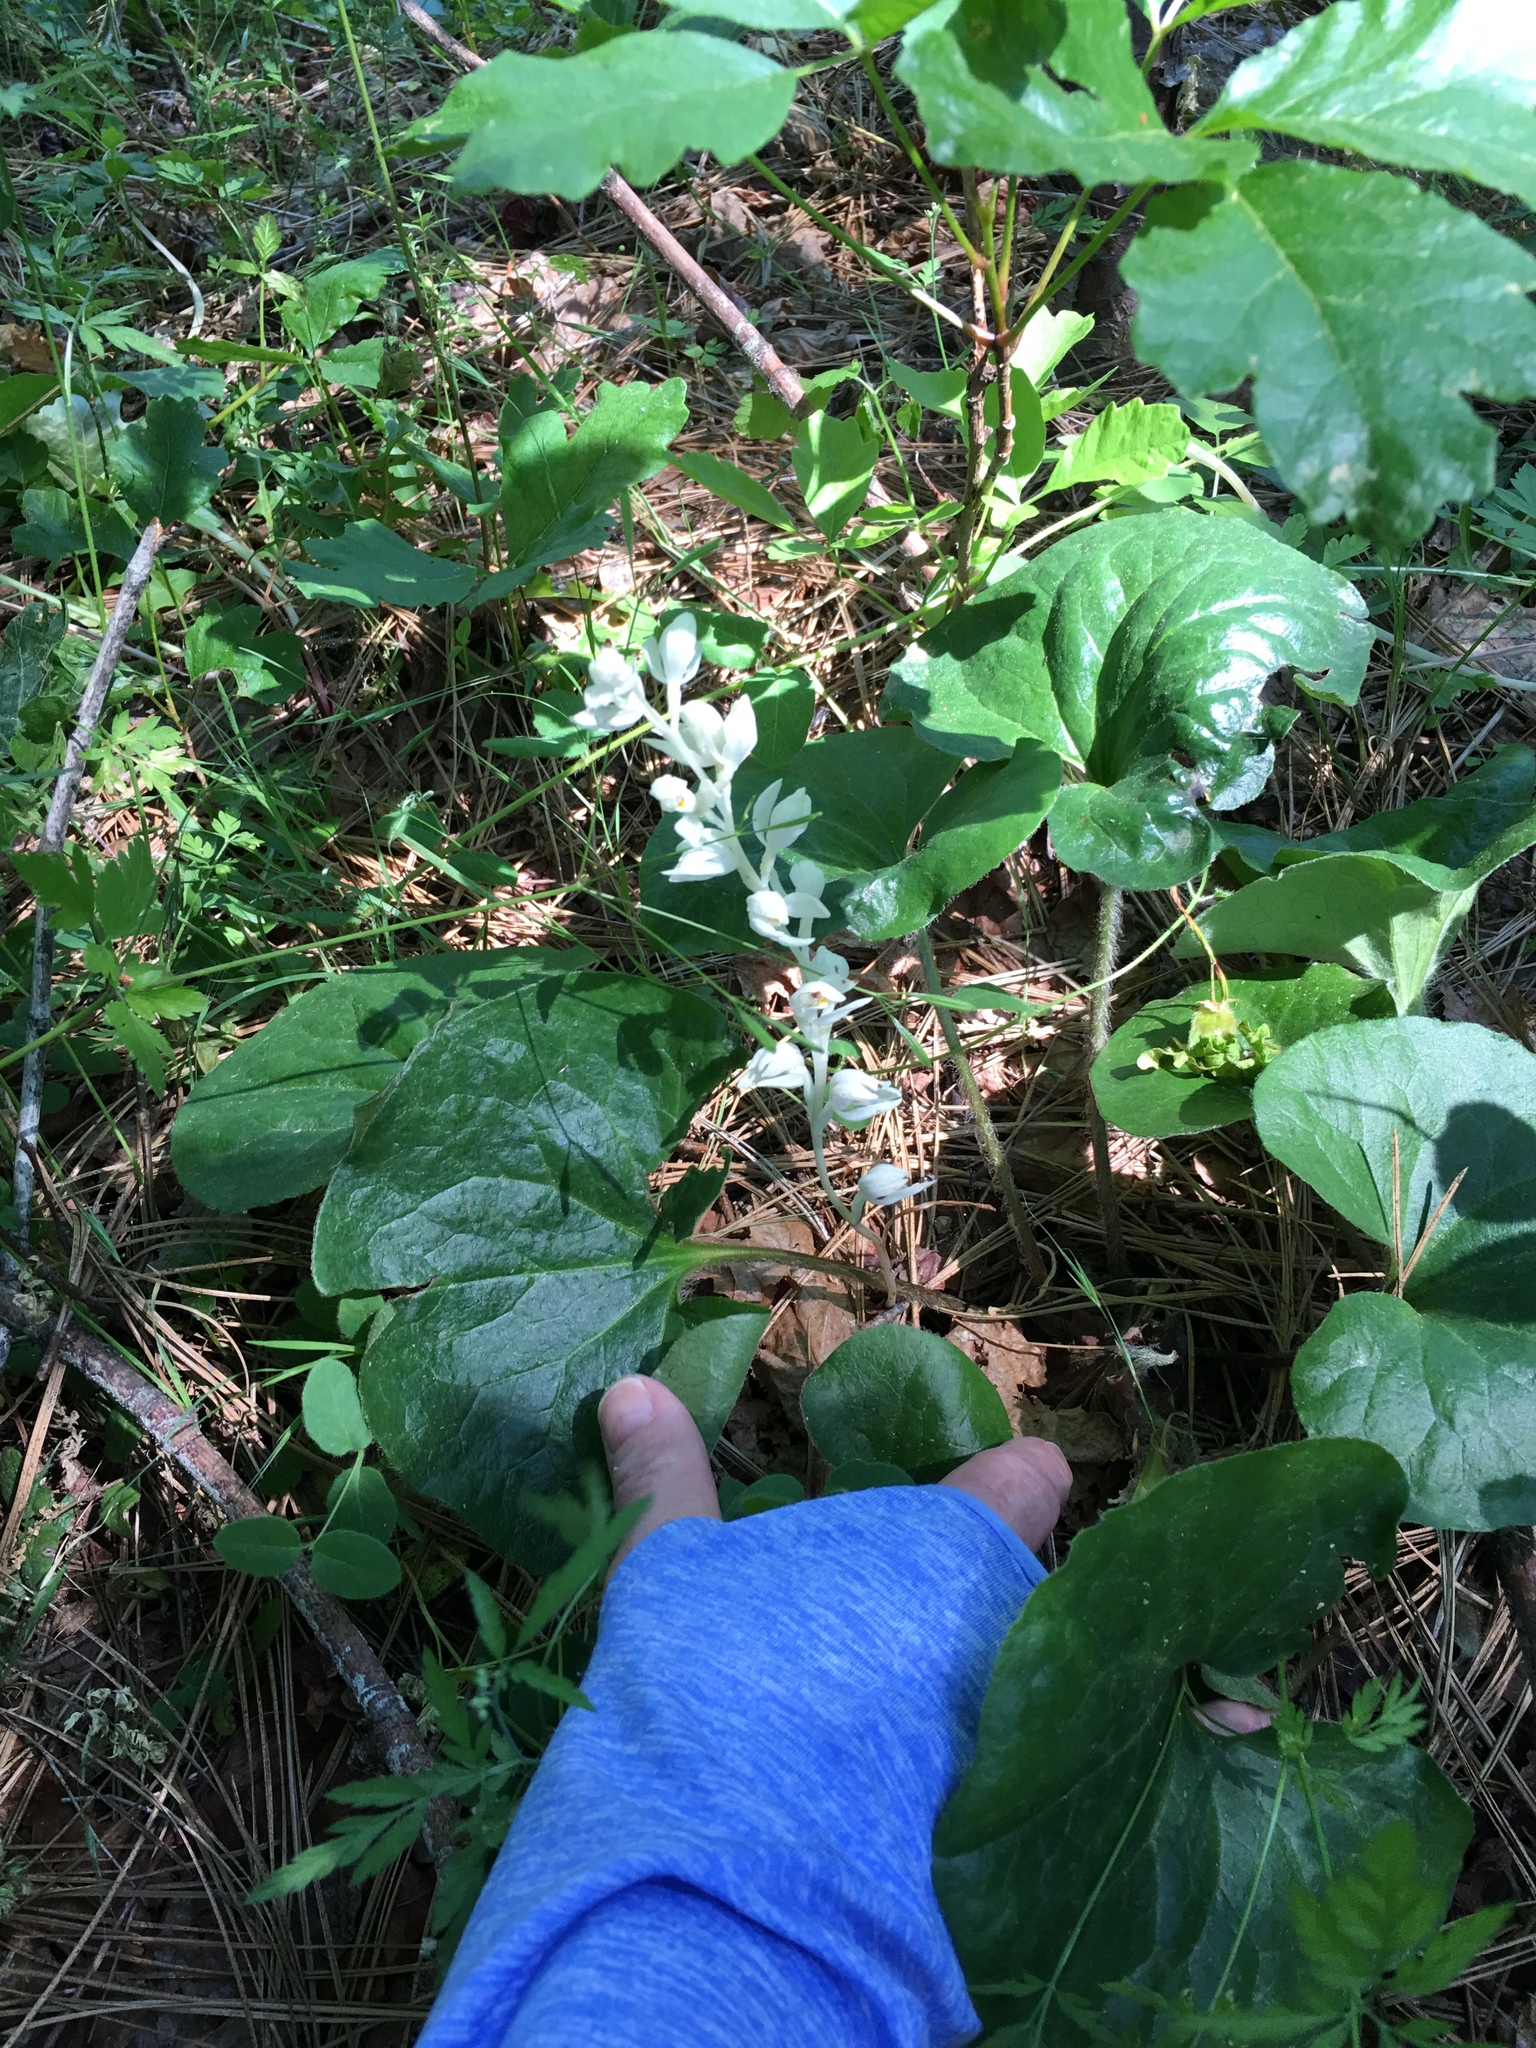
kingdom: Plantae
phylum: Tracheophyta
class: Liliopsida
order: Asparagales
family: Orchidaceae
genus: Cephalanthera
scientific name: Cephalanthera austiniae
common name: Phantom orchid
